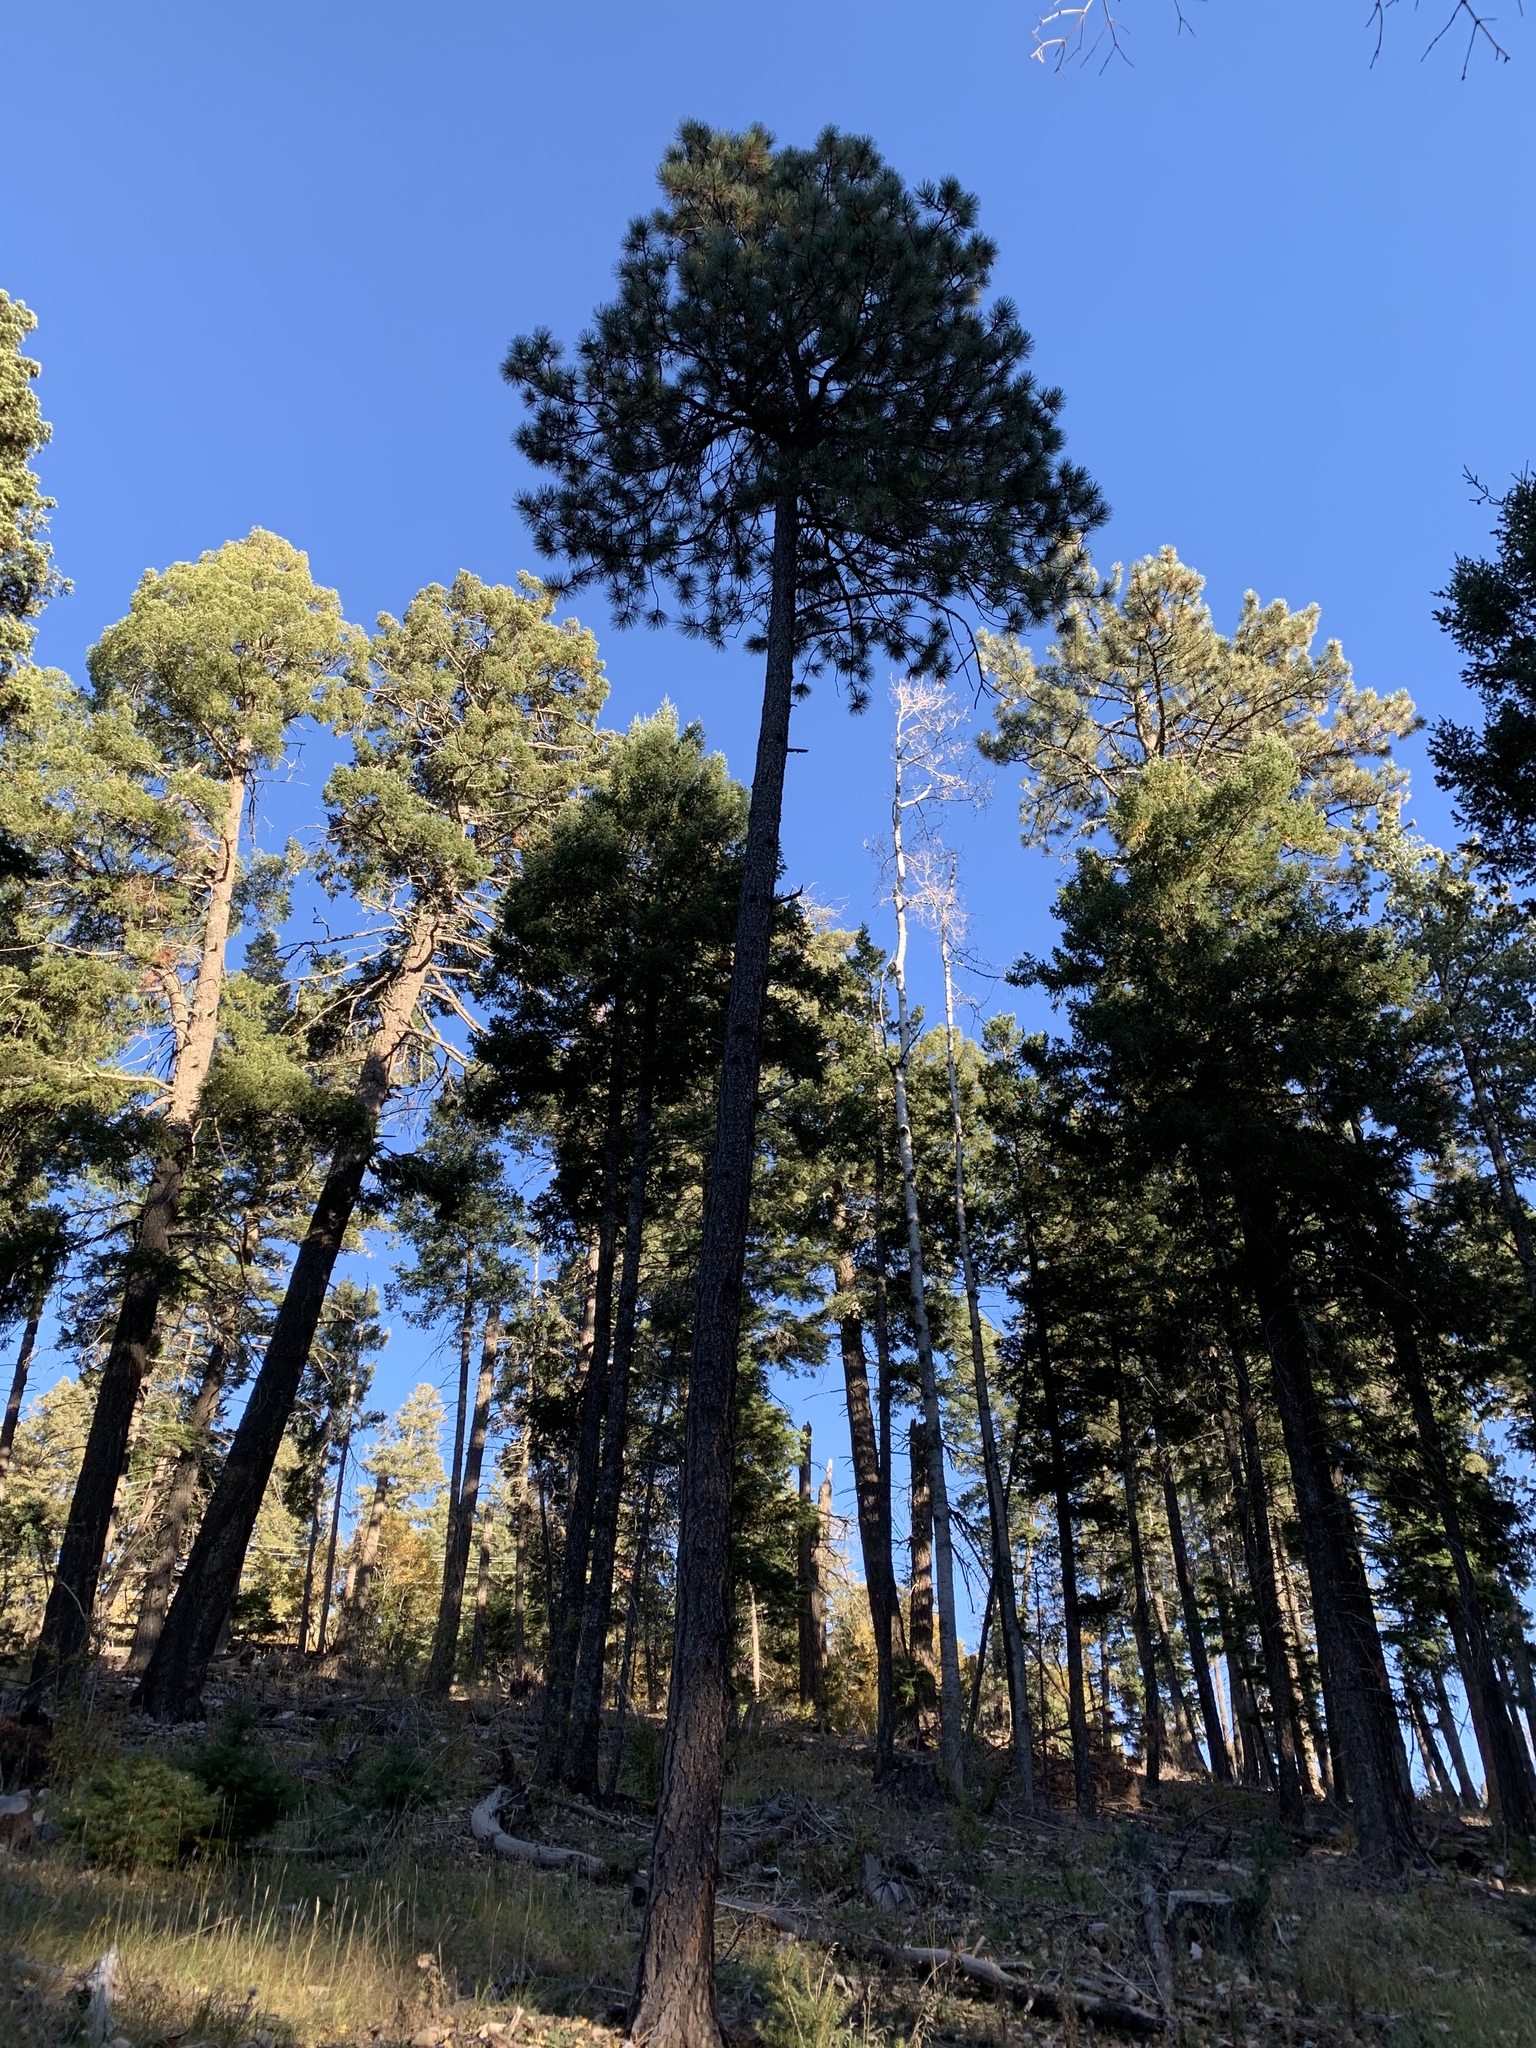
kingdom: Plantae
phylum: Tracheophyta
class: Pinopsida
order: Pinales
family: Pinaceae
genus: Pinus
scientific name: Pinus ponderosa
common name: Western yellow-pine
